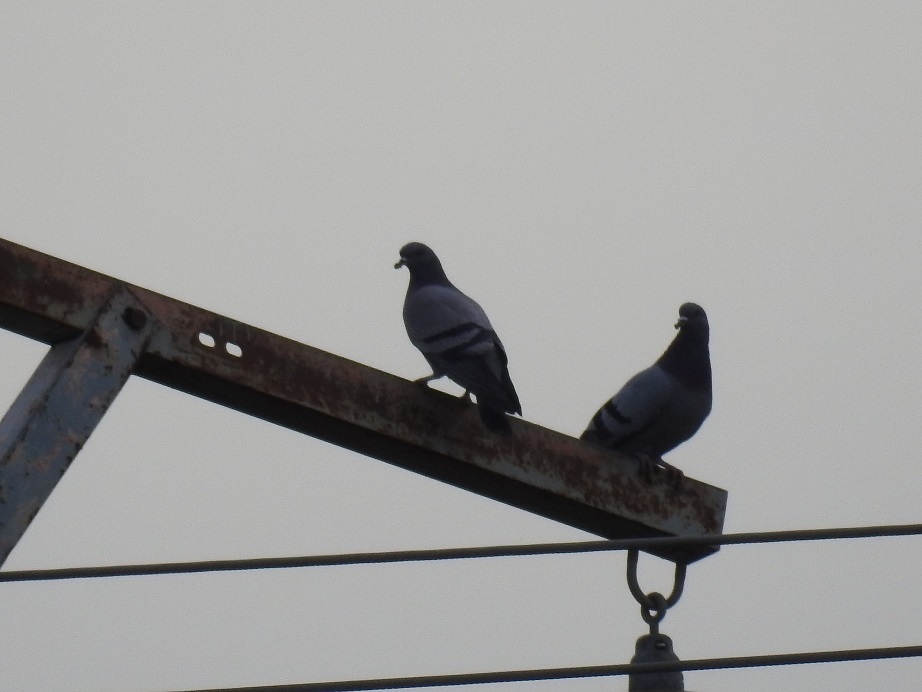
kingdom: Animalia
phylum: Chordata
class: Aves
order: Columbiformes
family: Columbidae
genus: Columba
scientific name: Columba livia
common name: Rock pigeon
